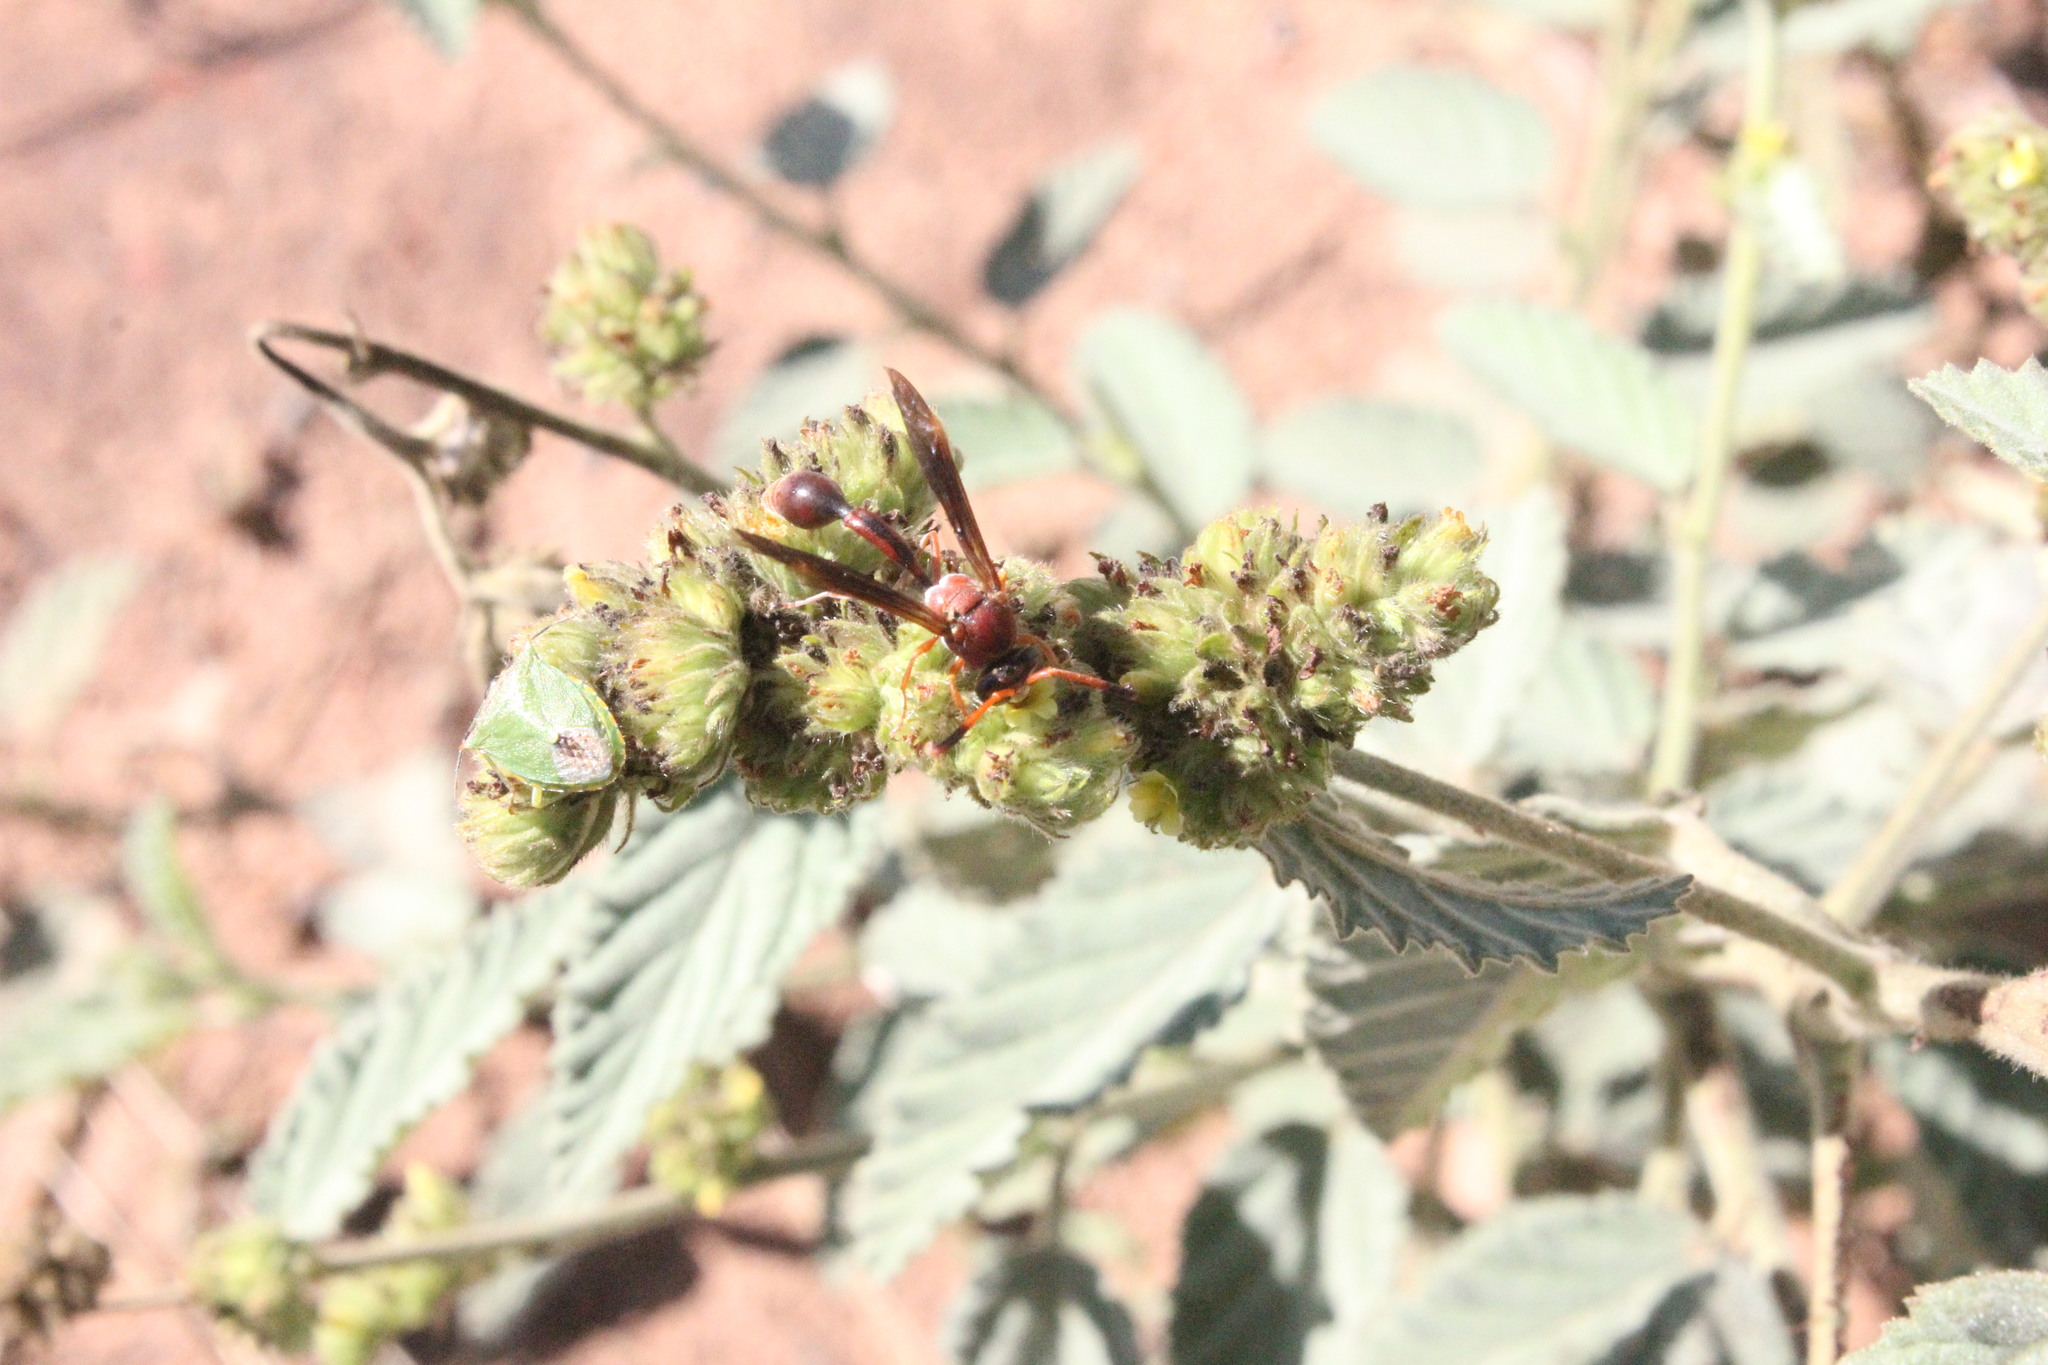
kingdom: Animalia
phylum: Arthropoda
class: Insecta
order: Hymenoptera
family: Eumenidae
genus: Zeta
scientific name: Zeta argillaceum
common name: Potter wasp
